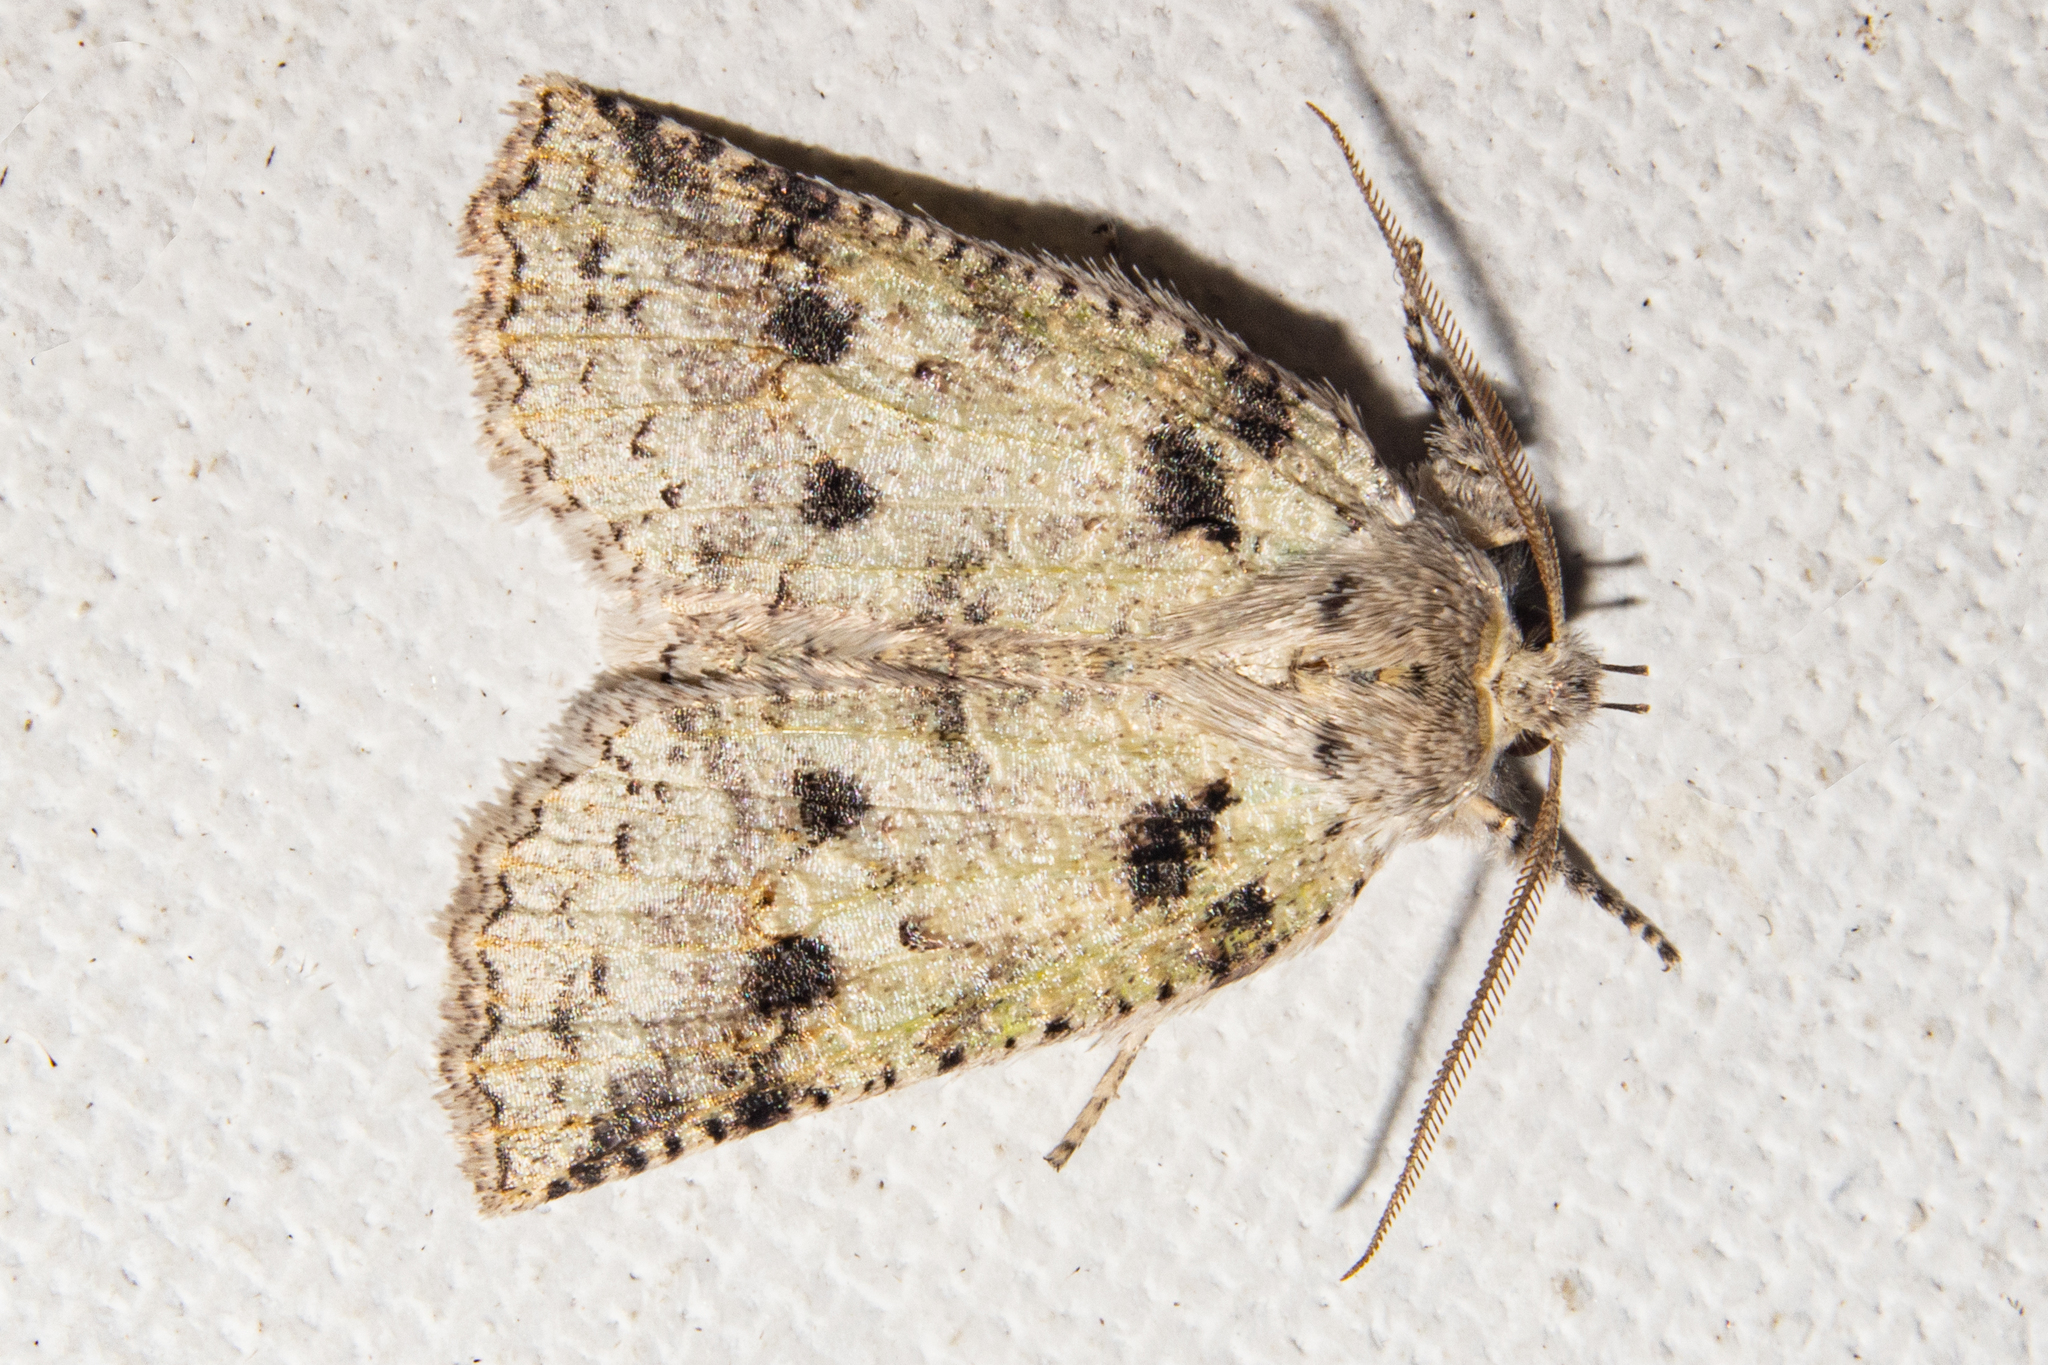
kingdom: Animalia
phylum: Arthropoda
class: Insecta
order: Lepidoptera
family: Geometridae
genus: Declana
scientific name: Declana floccosa
